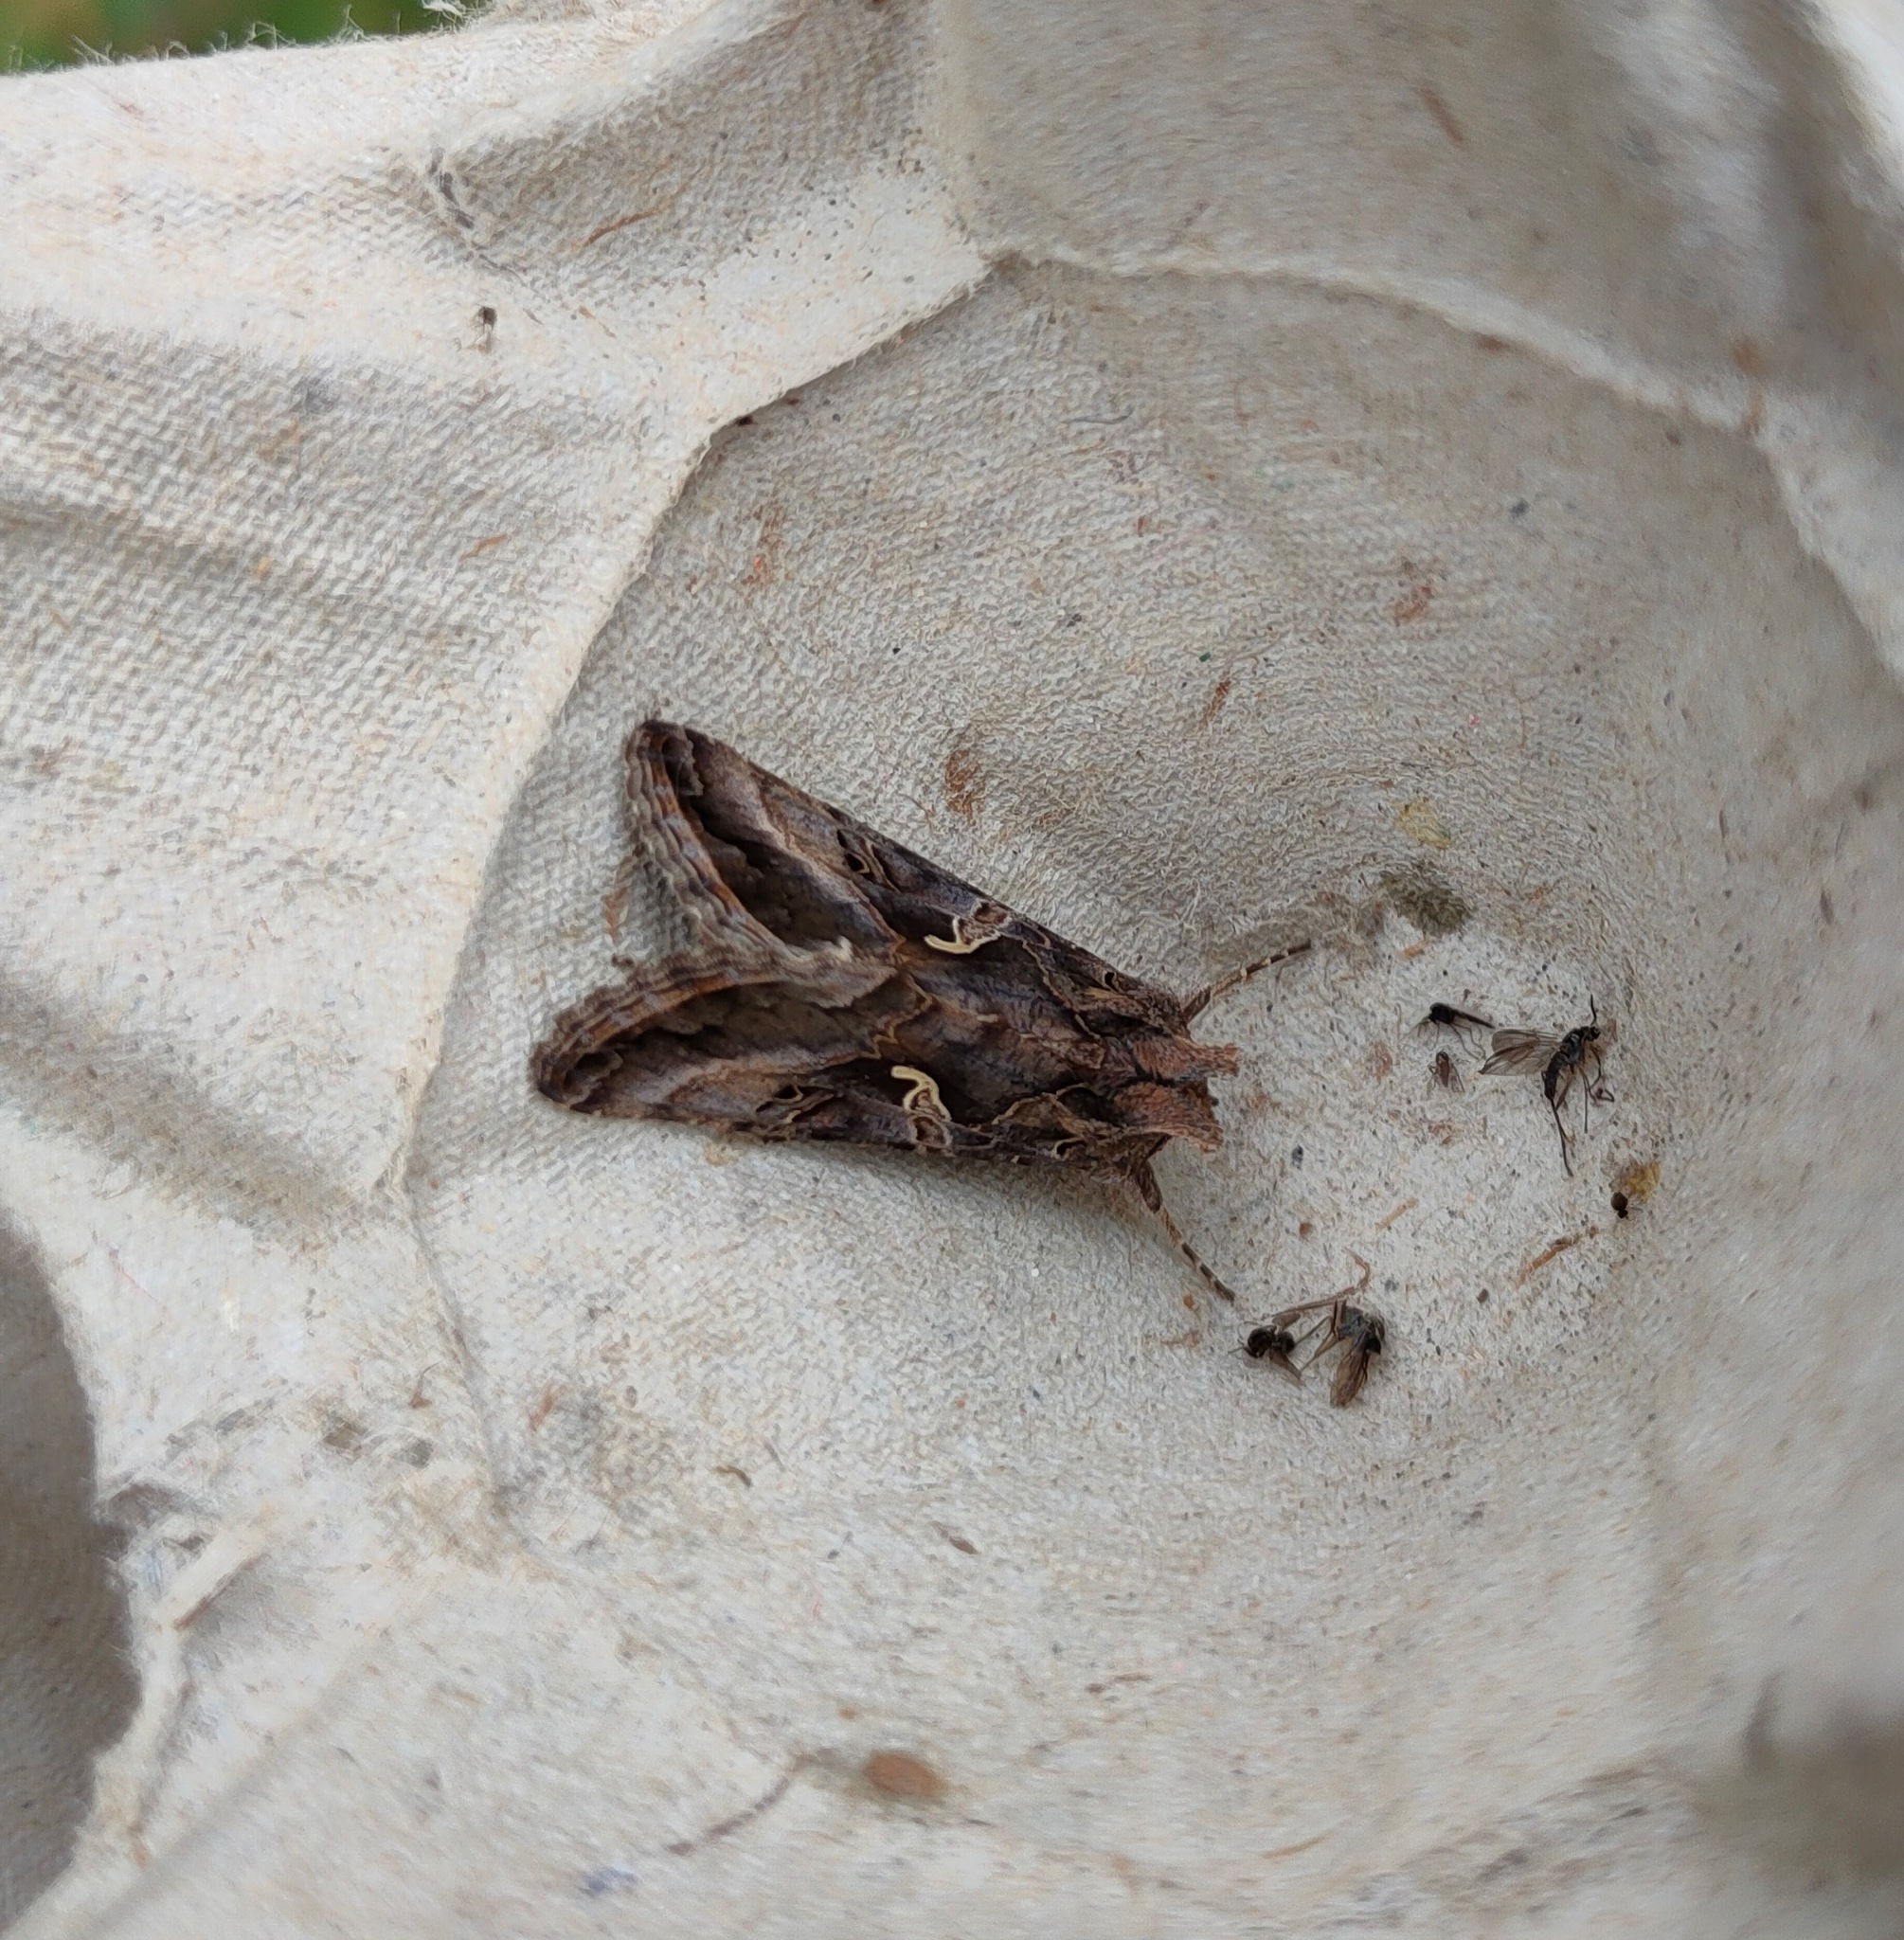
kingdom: Animalia
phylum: Arthropoda
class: Insecta
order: Lepidoptera
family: Noctuidae
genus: Autographa
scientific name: Autographa gamma
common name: Silver y
